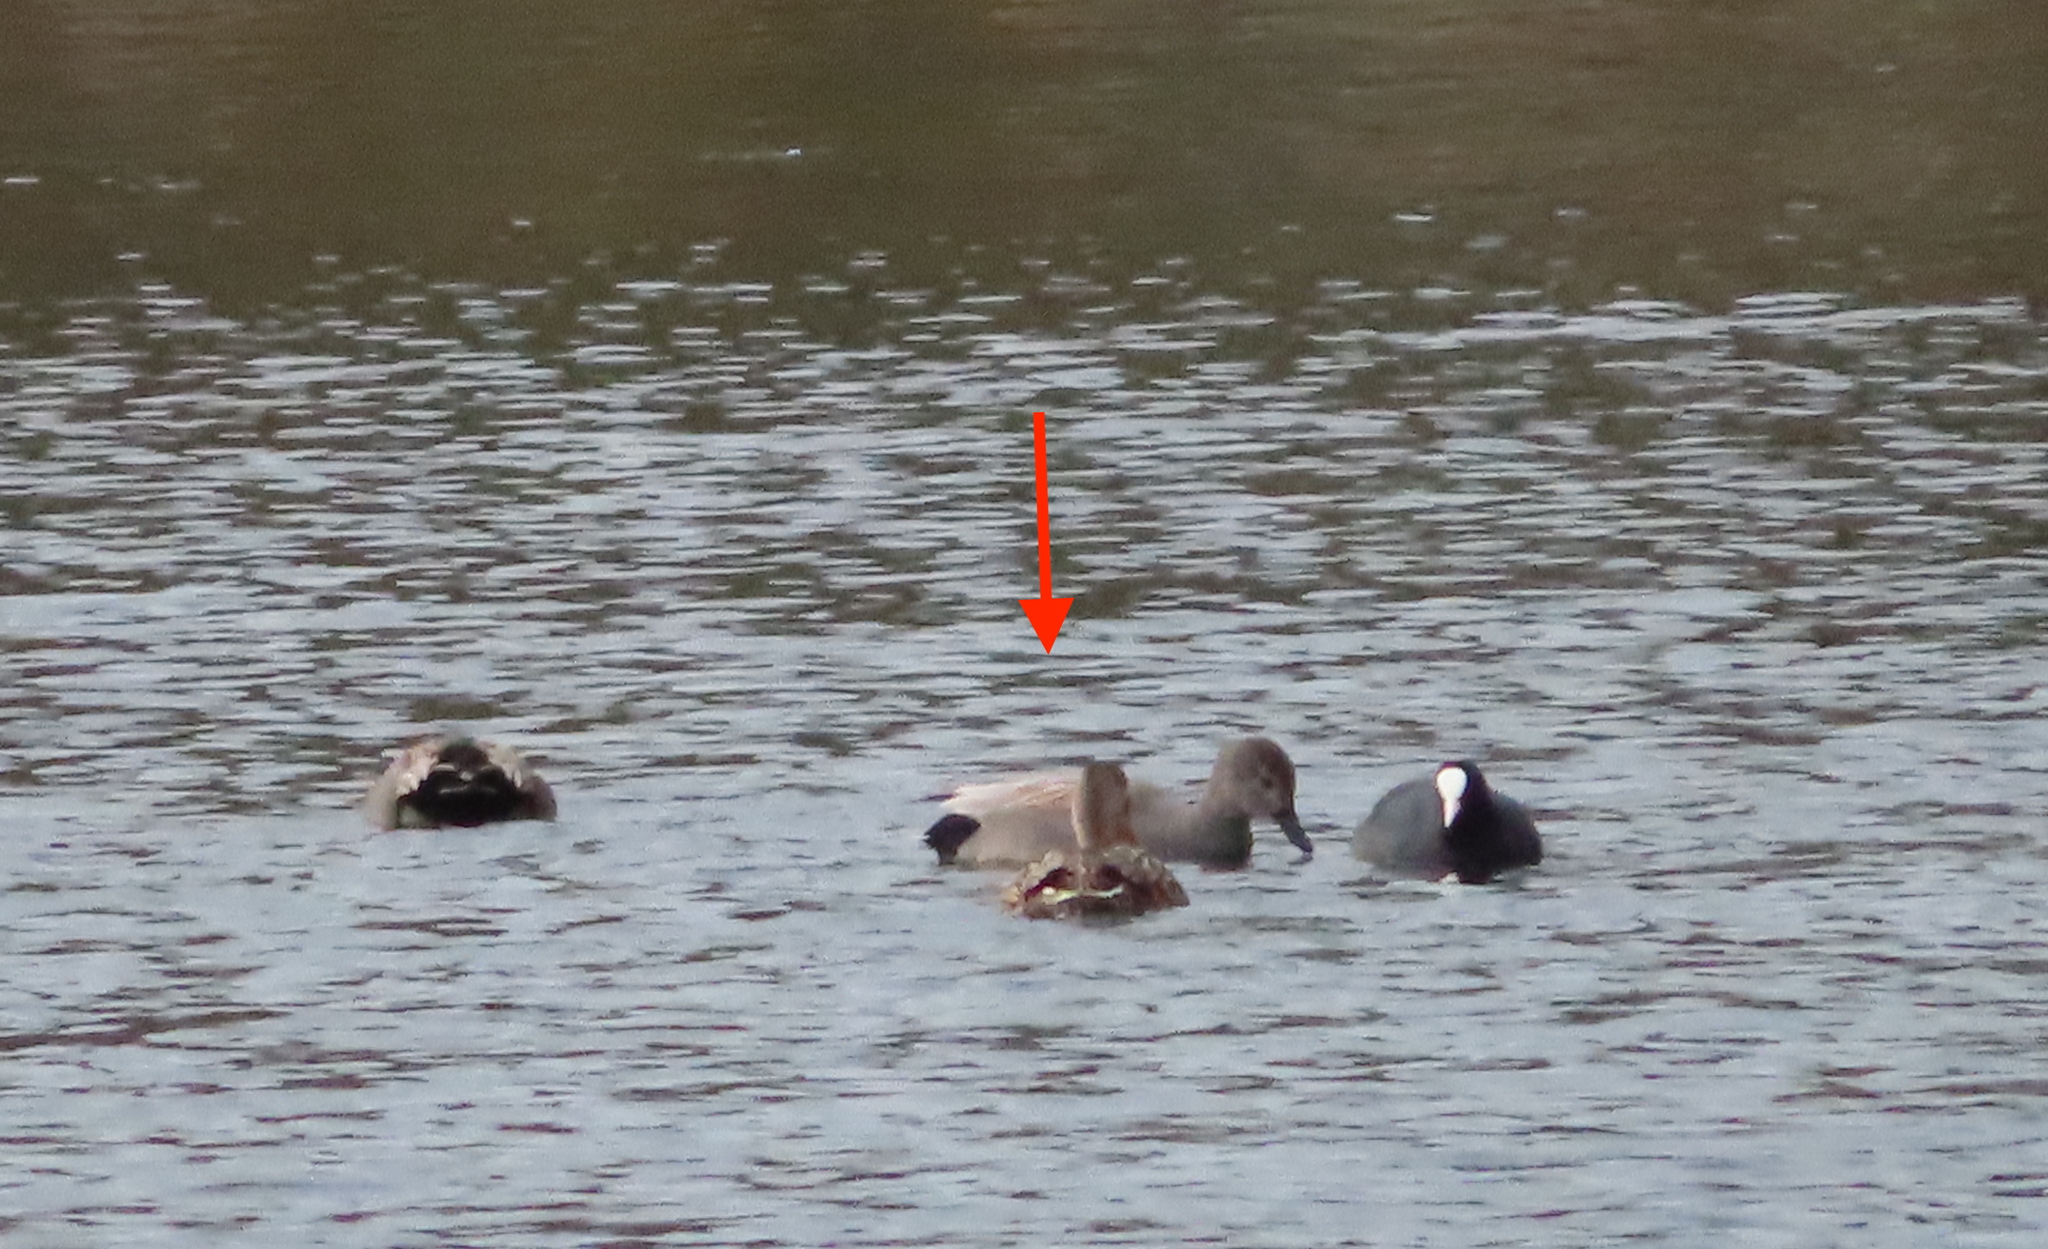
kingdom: Animalia
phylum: Chordata
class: Aves
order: Anseriformes
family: Anatidae
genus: Mareca
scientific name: Mareca strepera
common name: Gadwall
